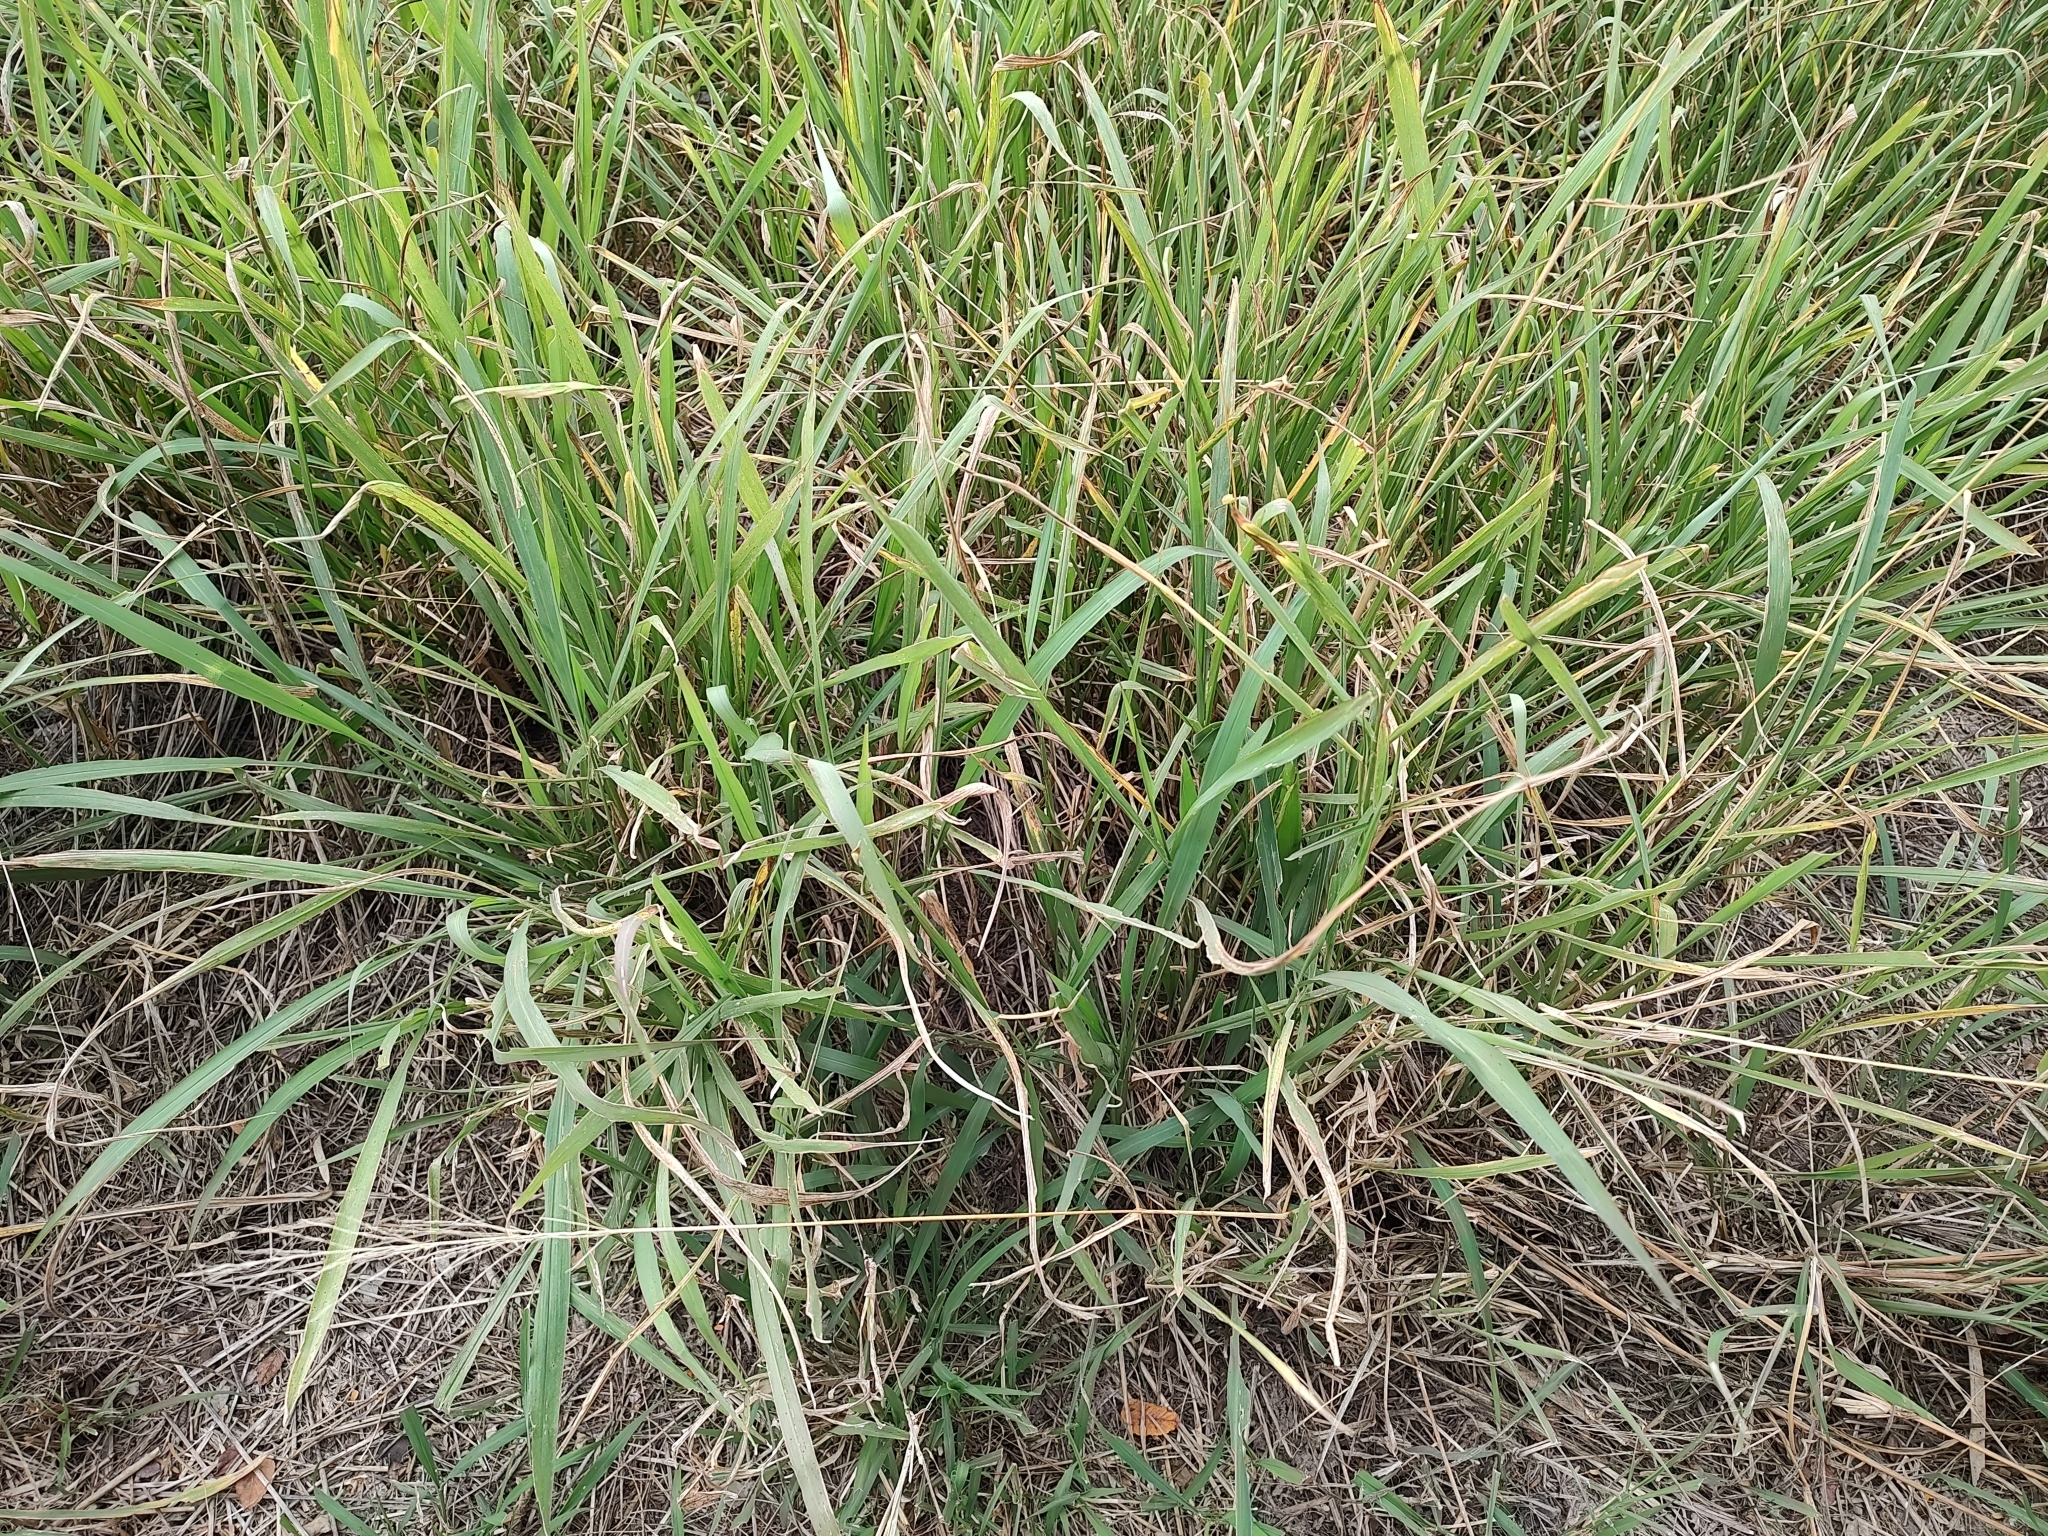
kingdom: Plantae
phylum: Tracheophyta
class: Liliopsida
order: Poales
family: Poaceae
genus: Megathyrsus
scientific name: Megathyrsus maximus
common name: Guineagrass
